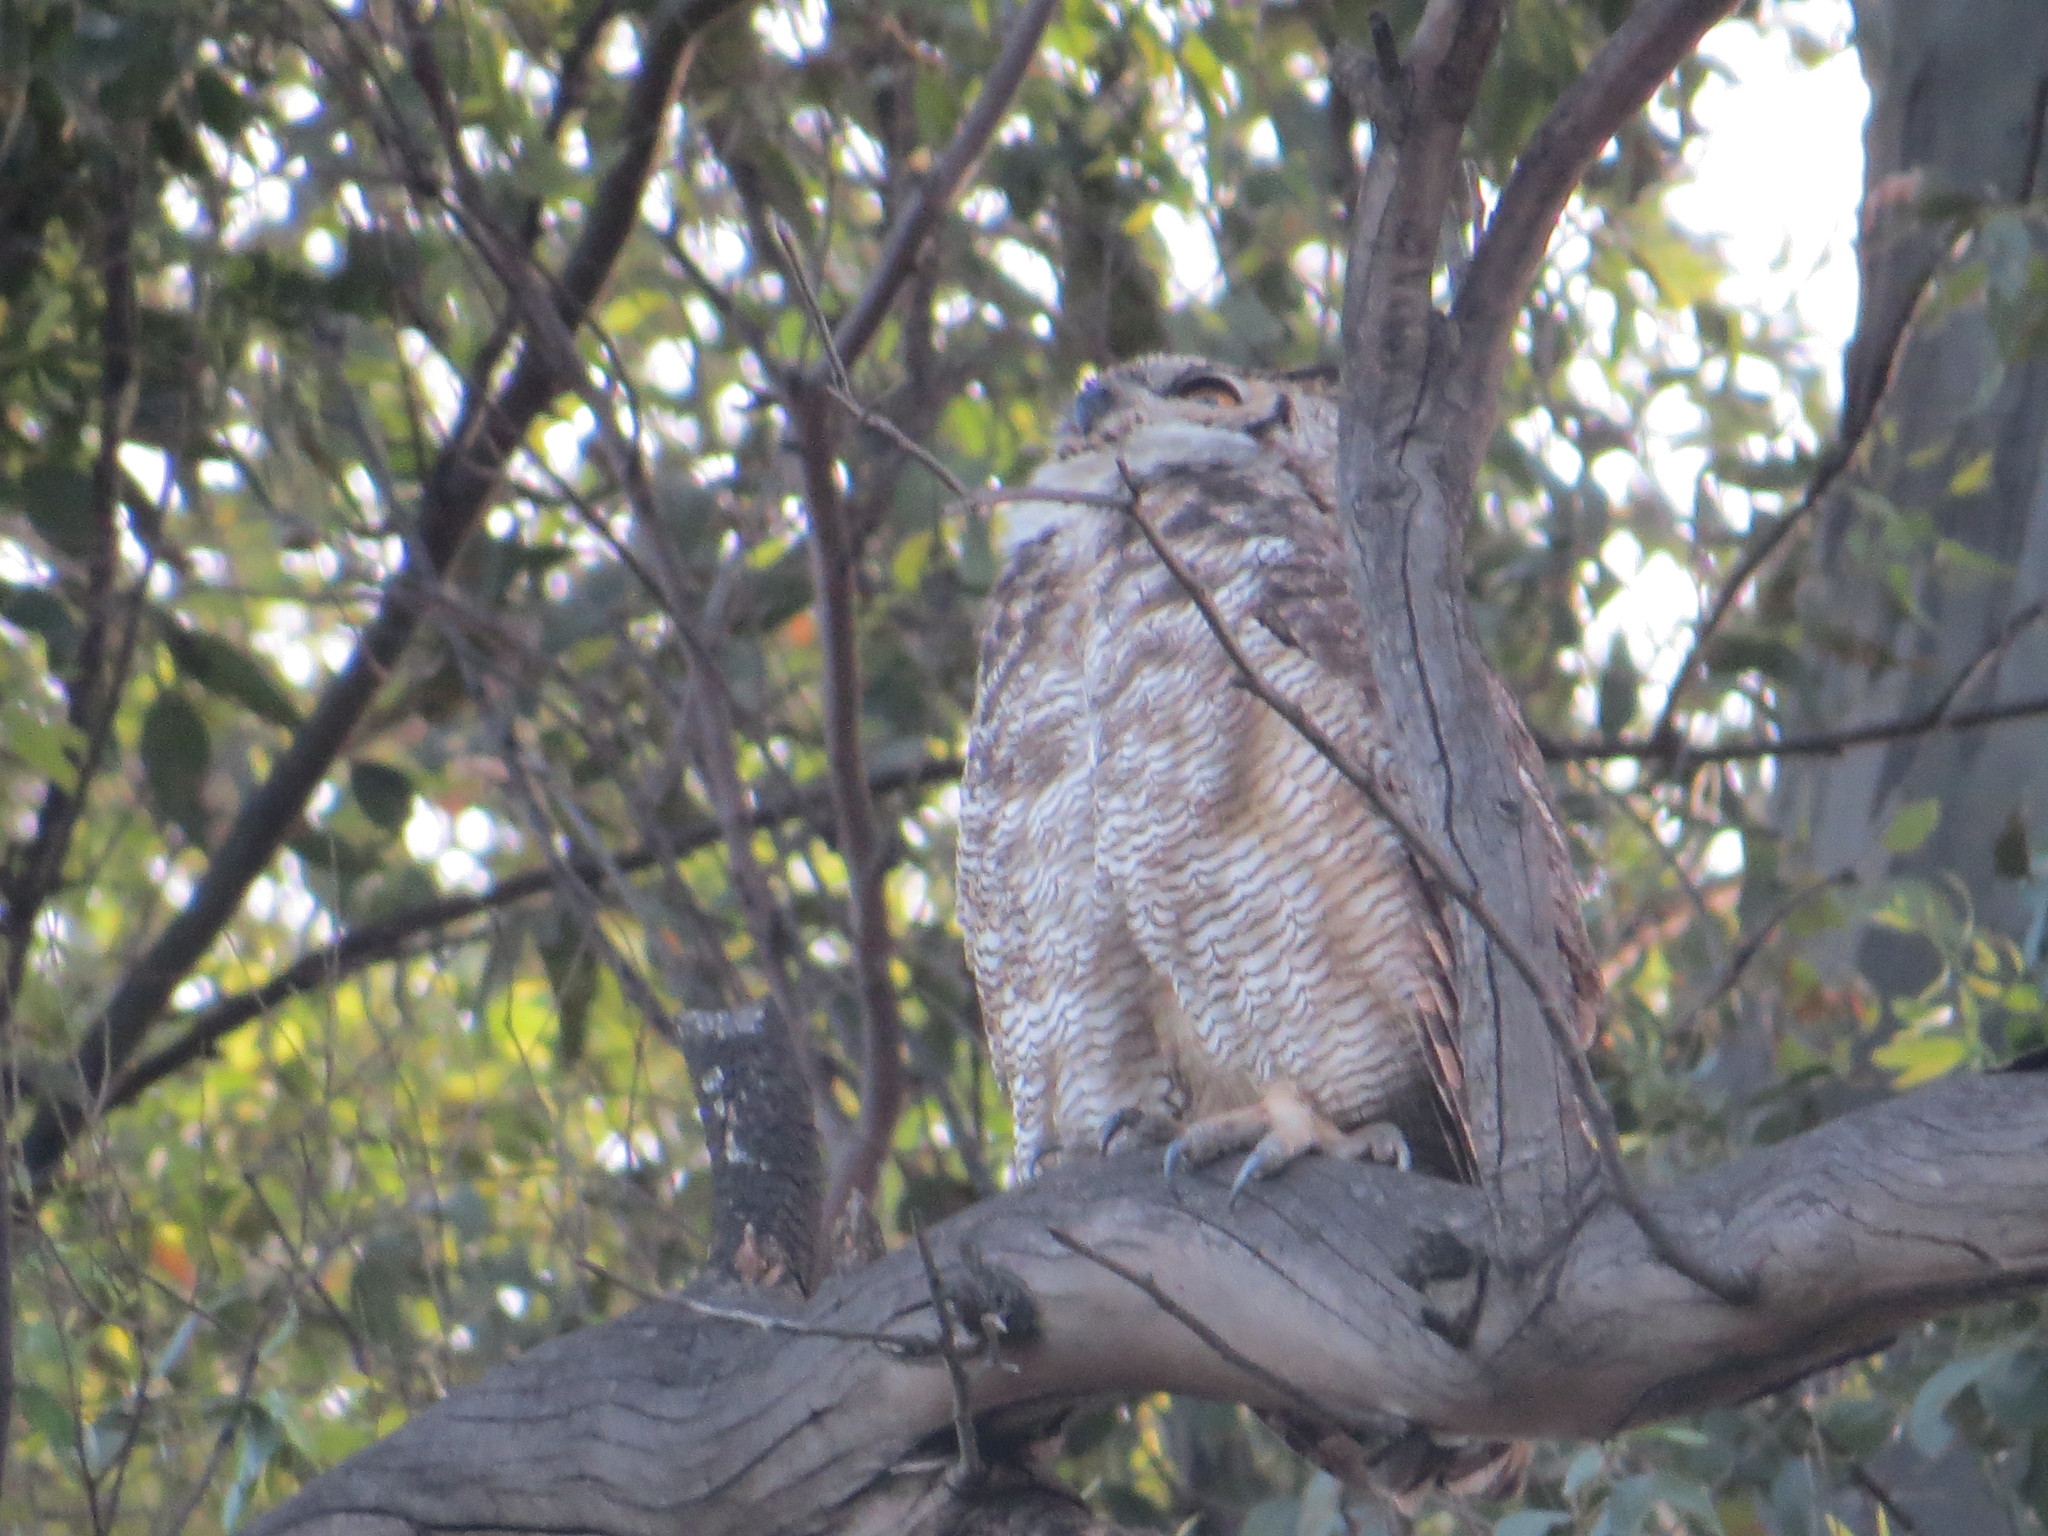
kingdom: Animalia
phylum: Chordata
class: Aves
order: Strigiformes
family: Strigidae
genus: Bubo
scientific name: Bubo virginianus
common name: Great horned owl
